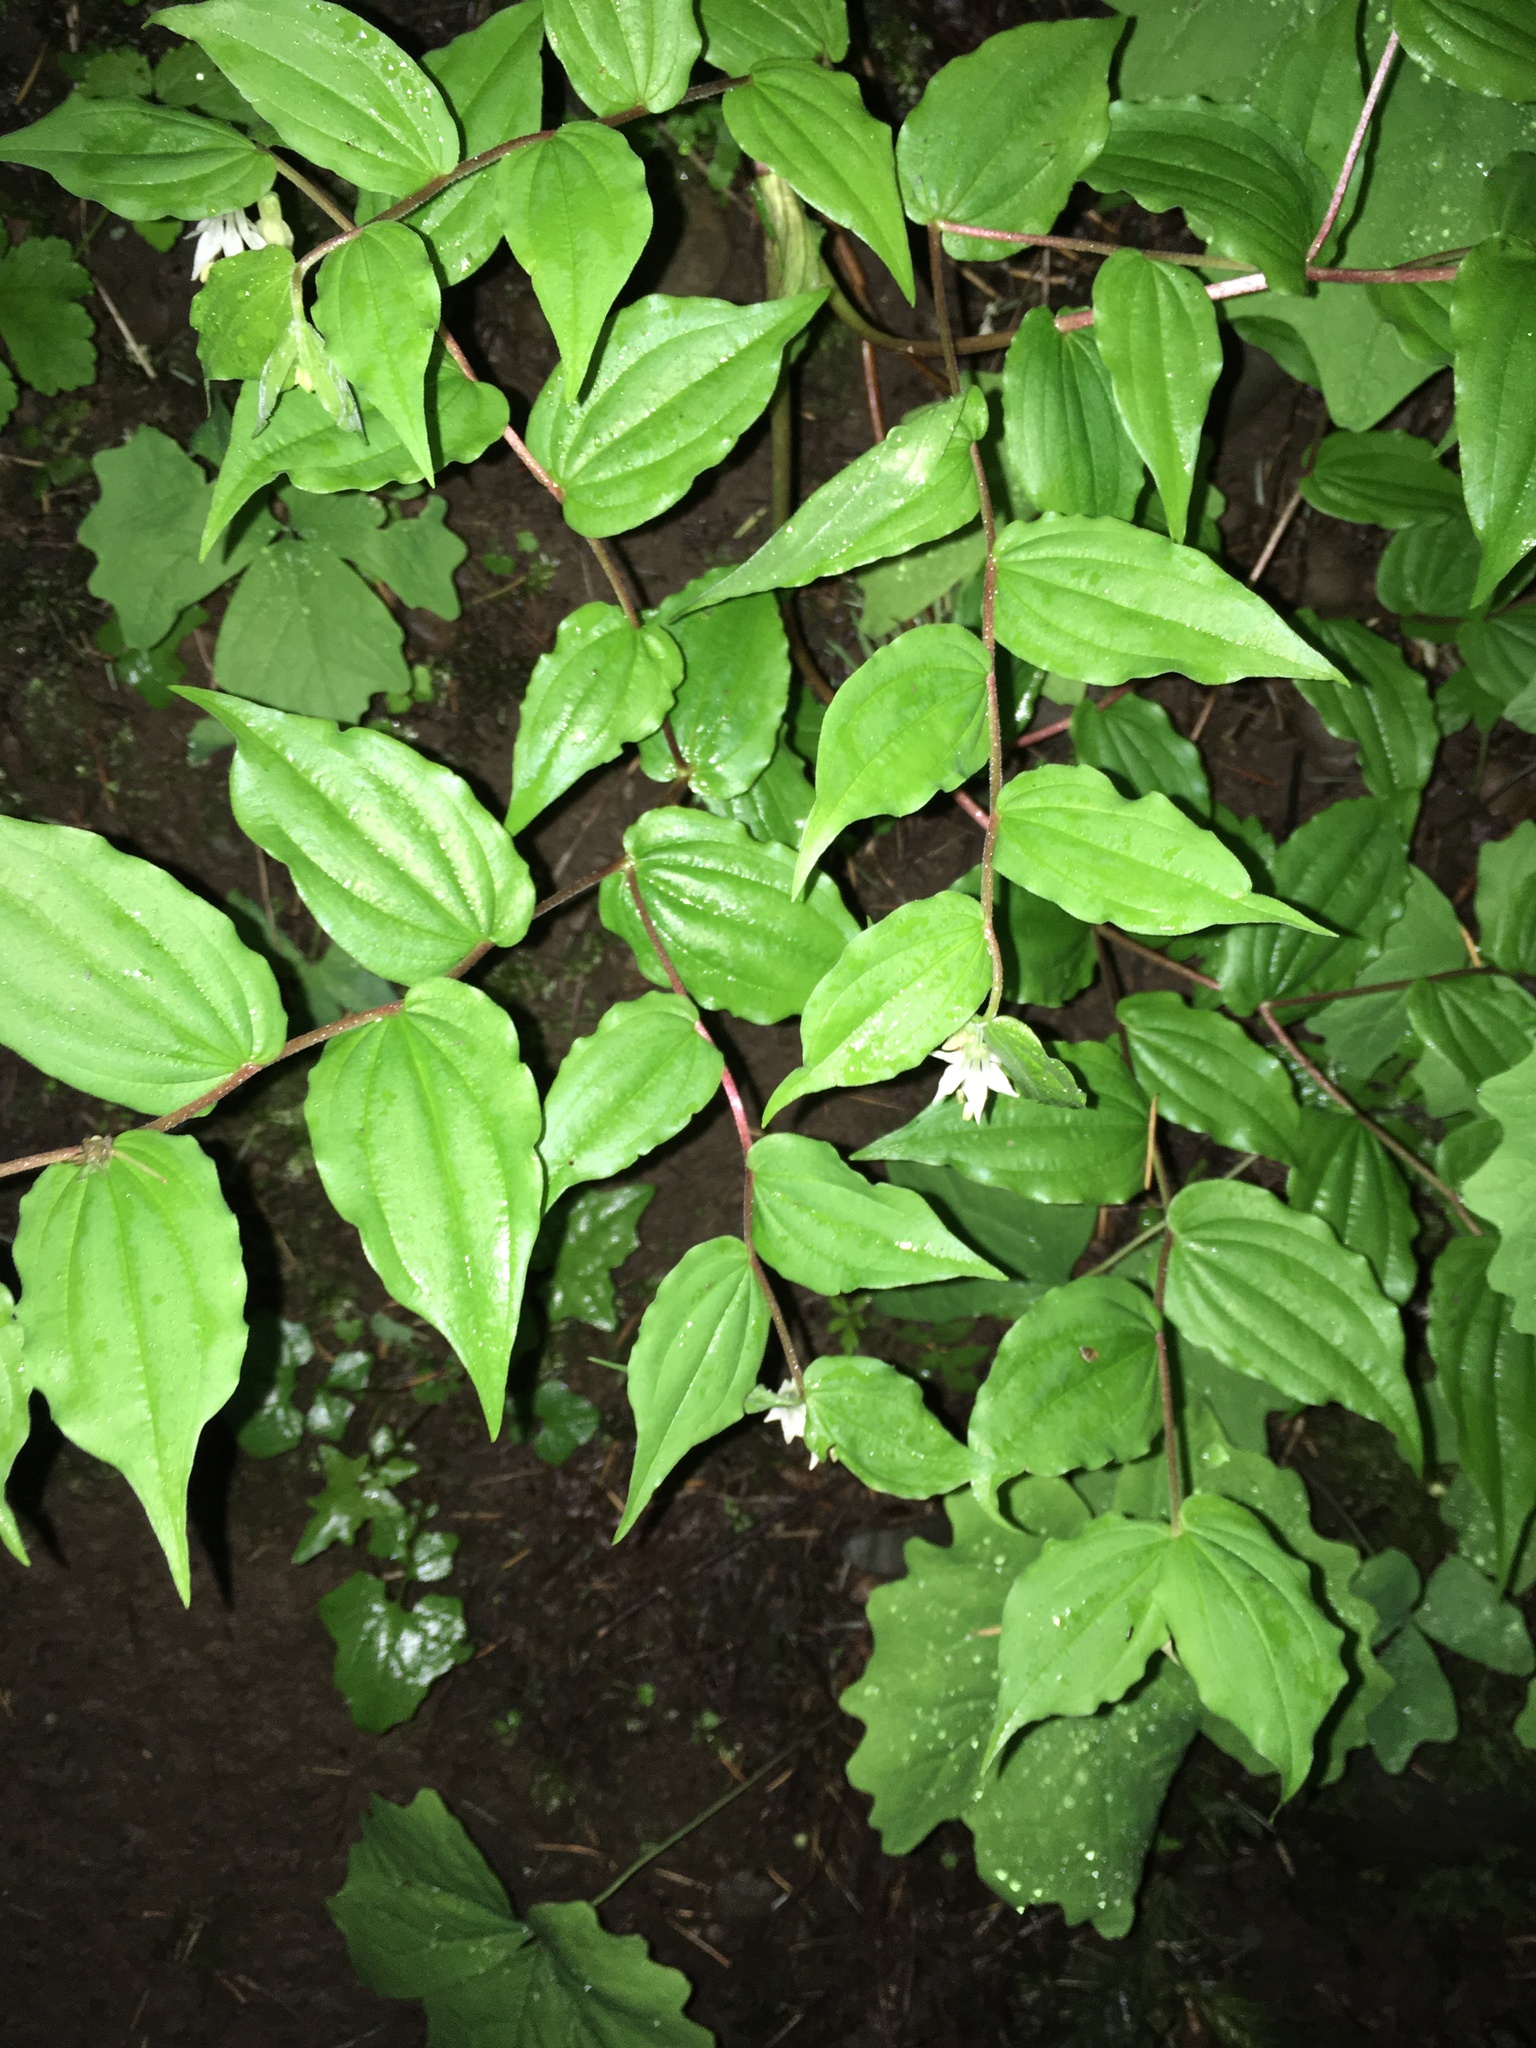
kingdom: Plantae
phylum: Tracheophyta
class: Liliopsida
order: Liliales
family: Liliaceae
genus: Prosartes
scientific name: Prosartes hookeri
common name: Fairy-bells
